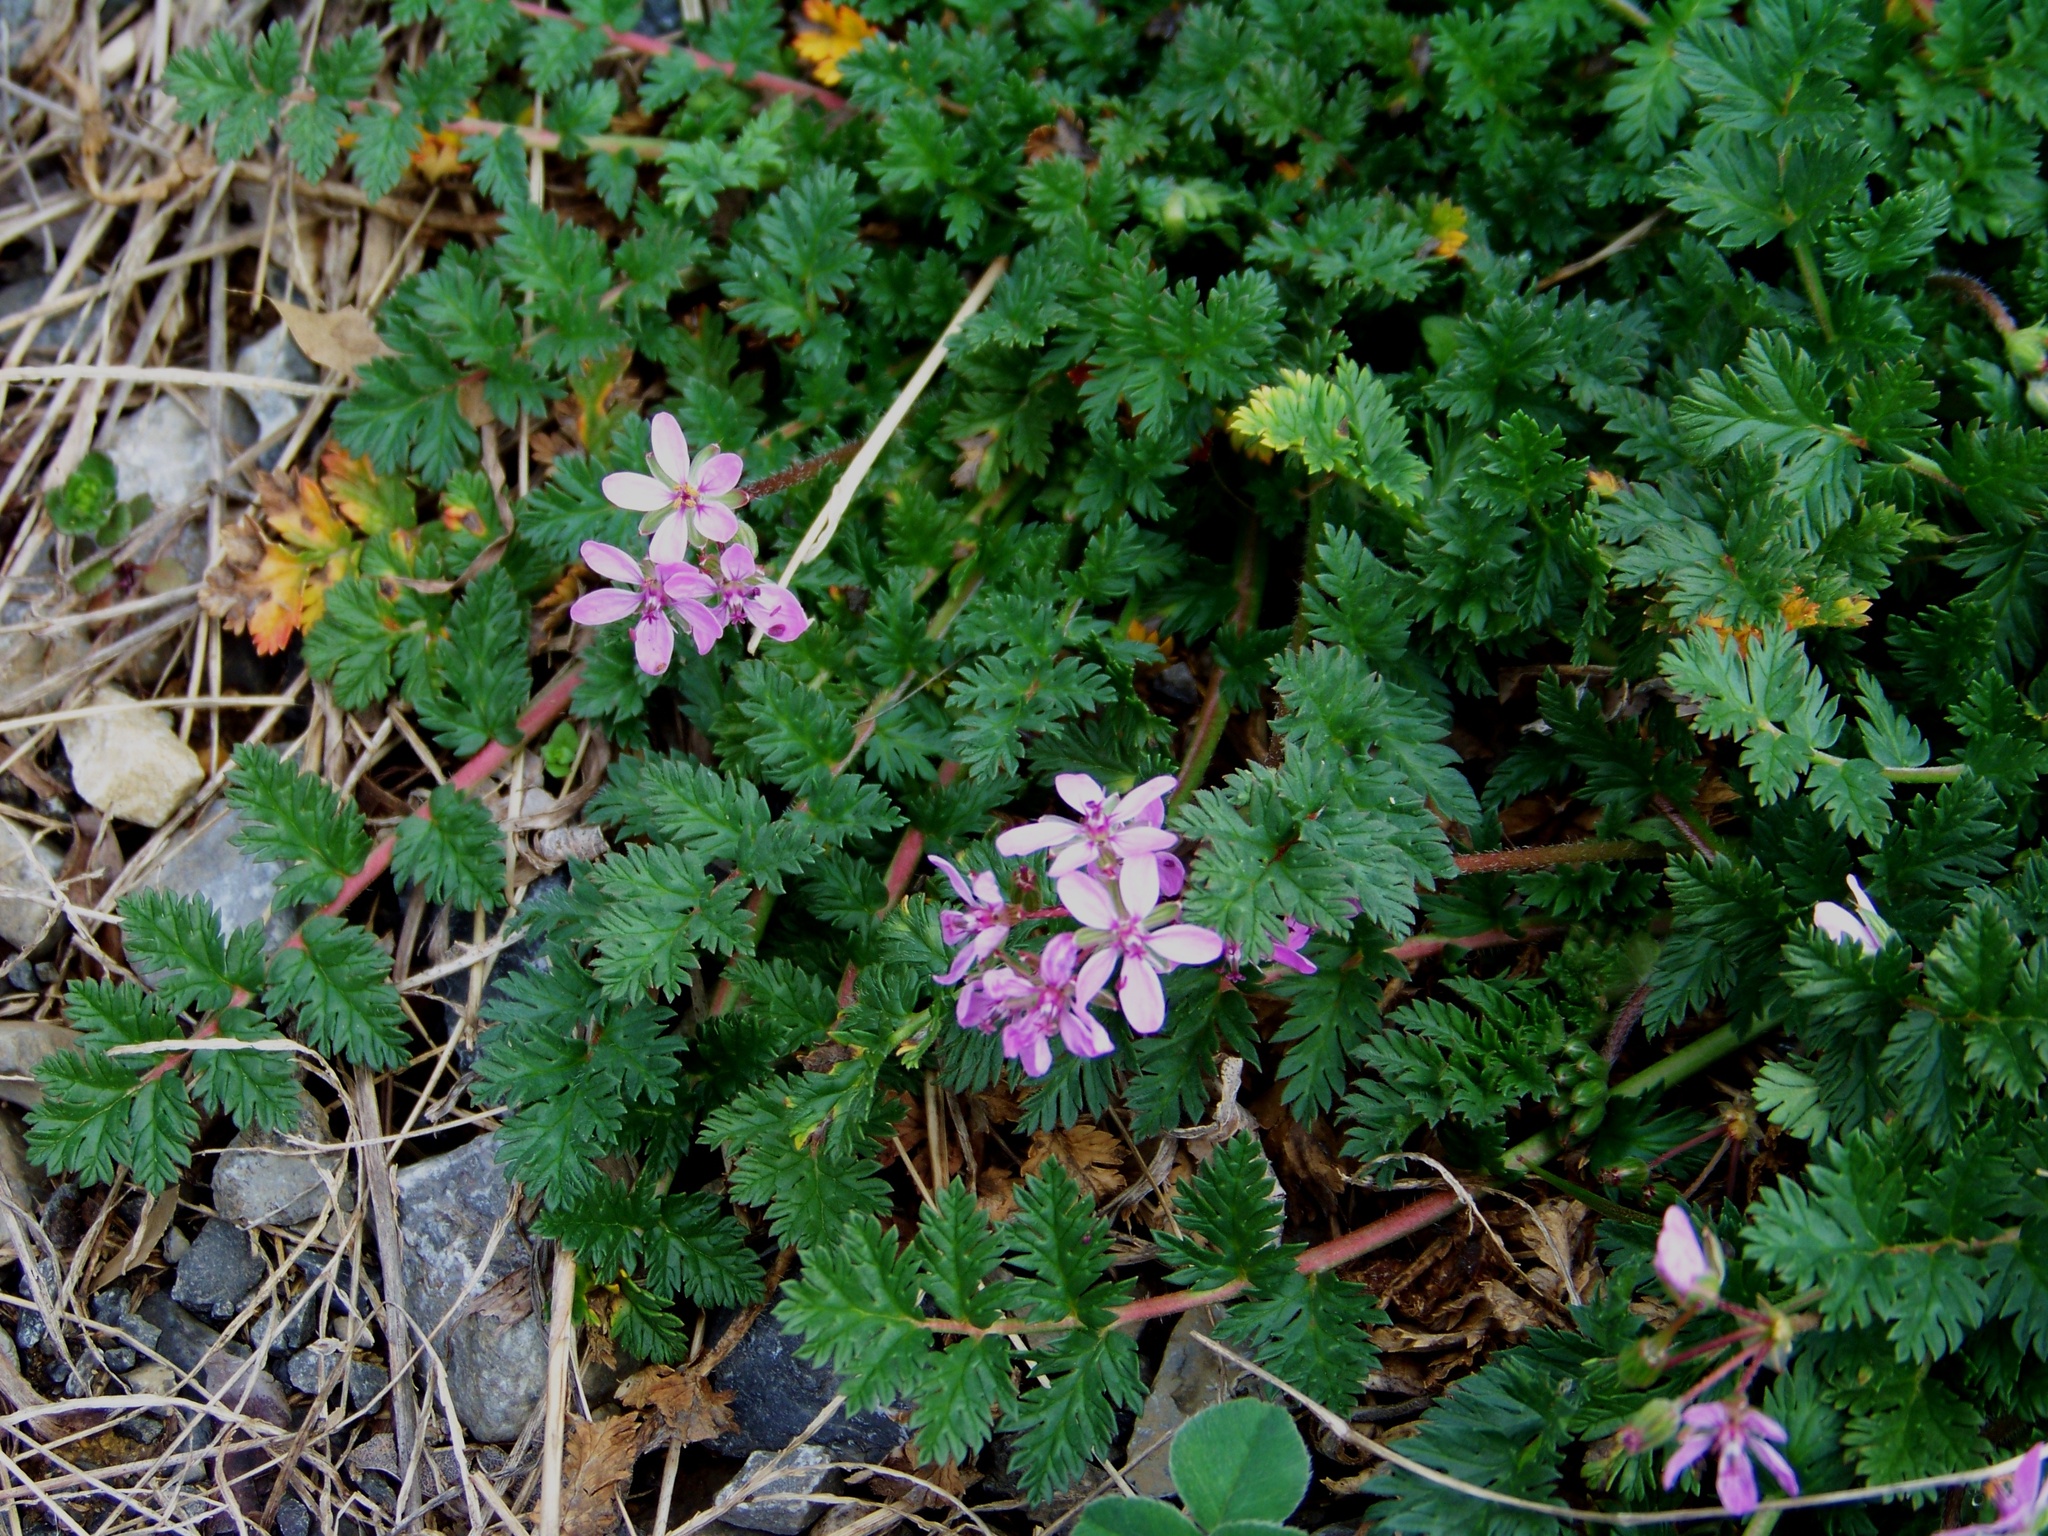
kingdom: Plantae
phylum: Tracheophyta
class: Magnoliopsida
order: Geraniales
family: Geraniaceae
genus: Erodium
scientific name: Erodium cicutarium
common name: Common stork's-bill
